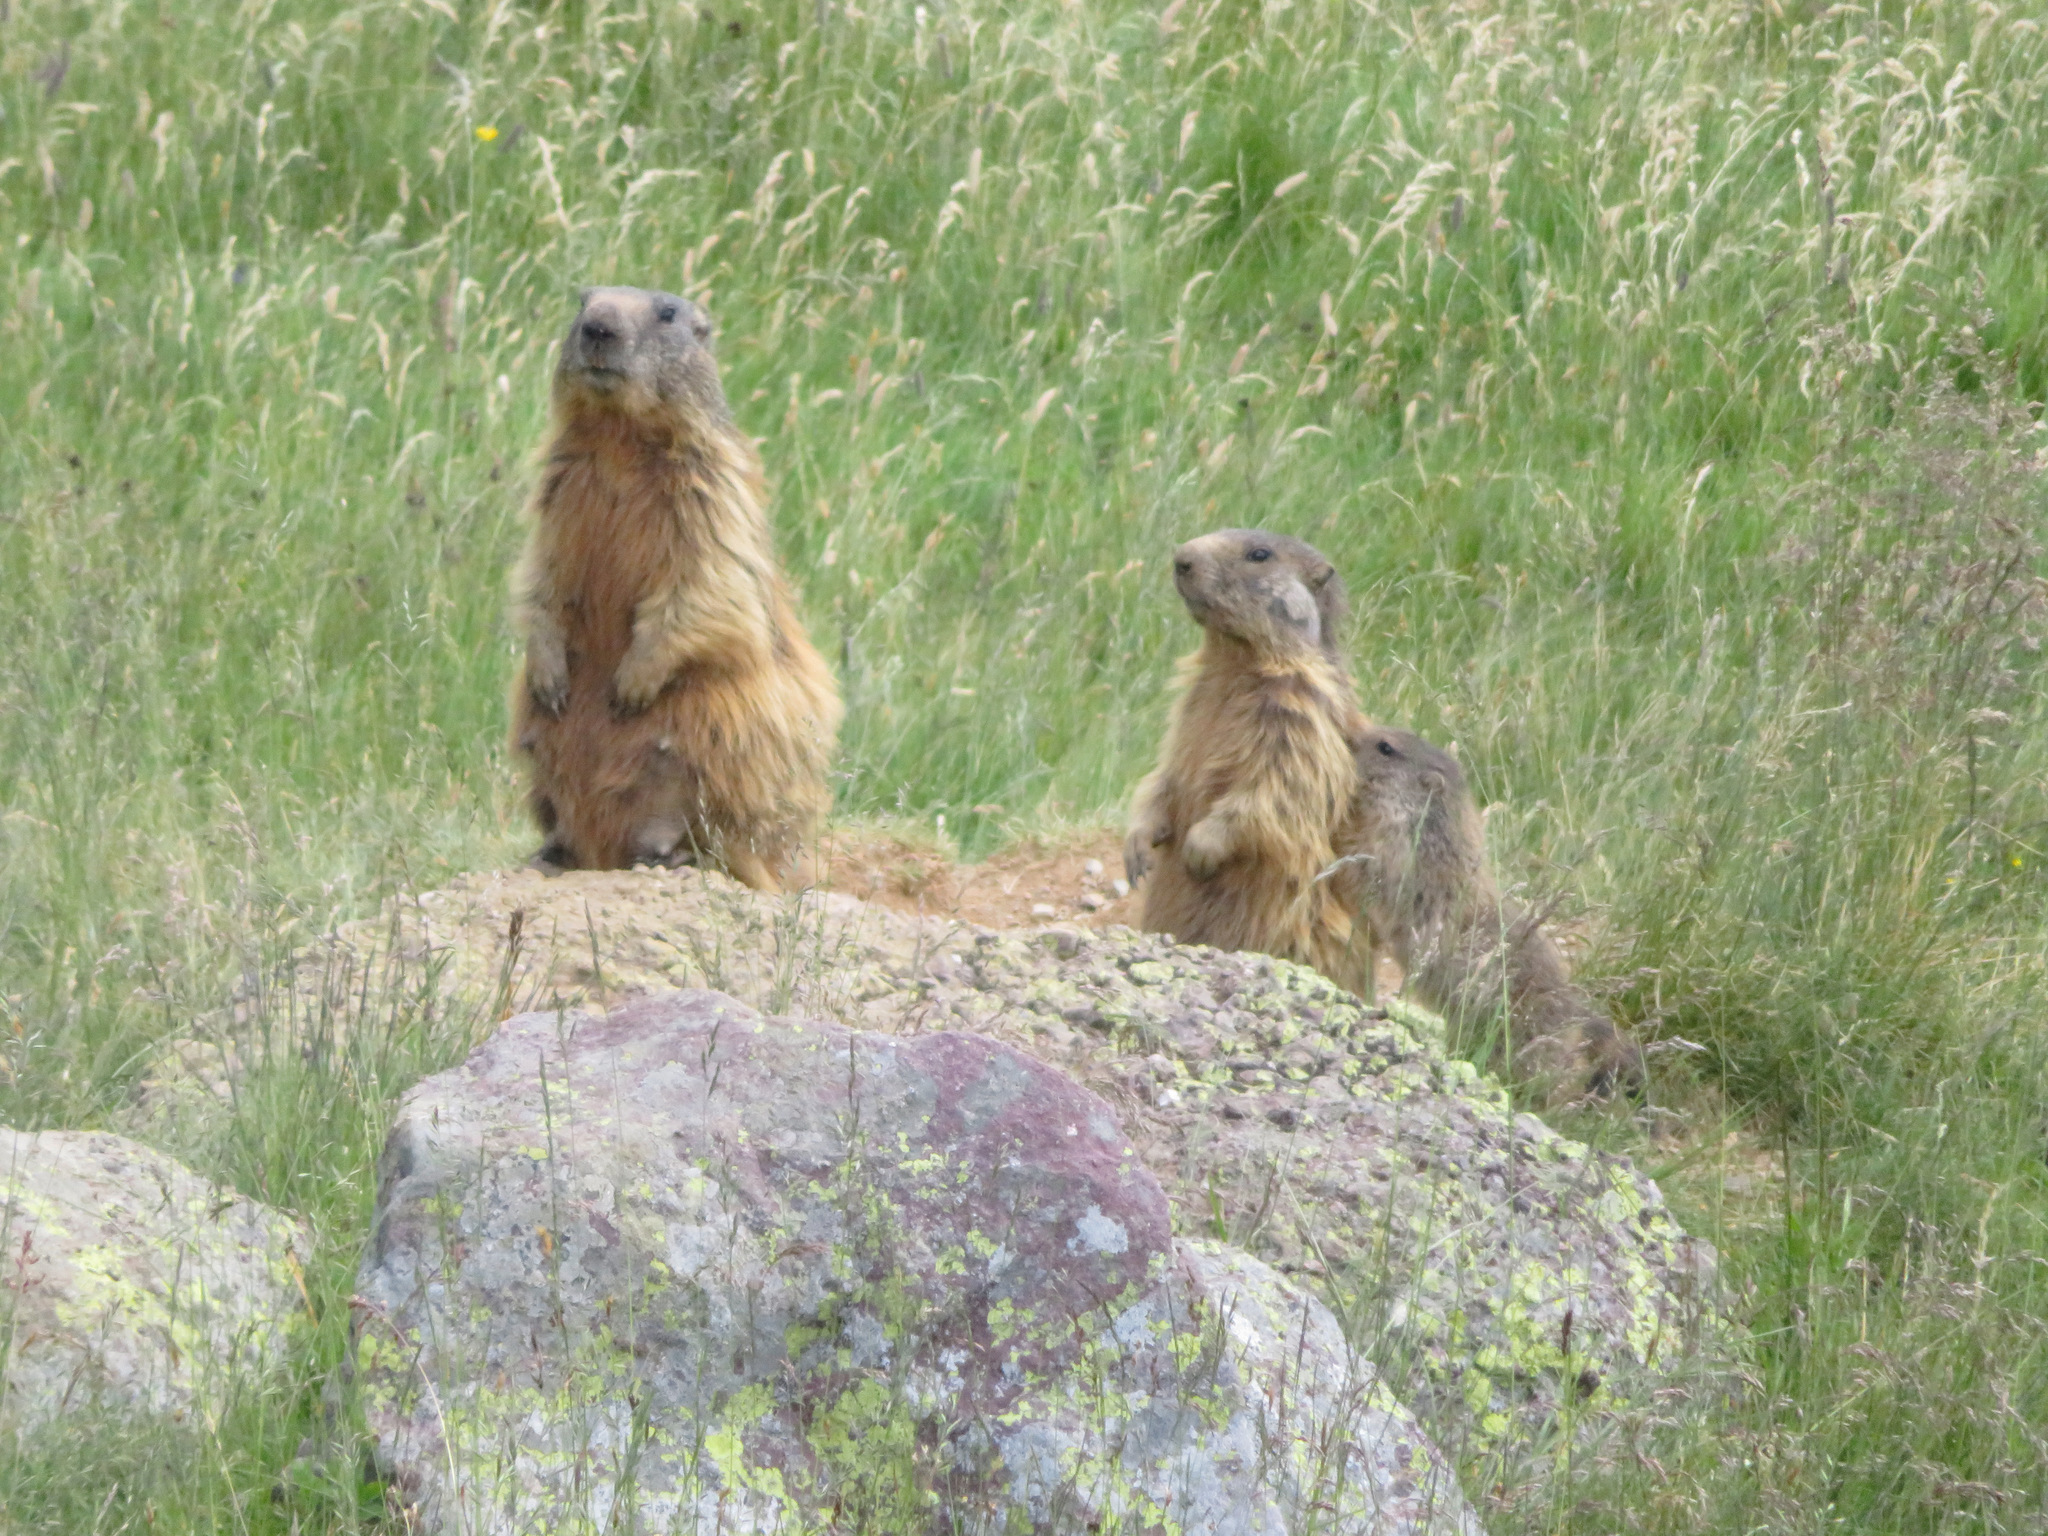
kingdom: Animalia
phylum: Chordata
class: Mammalia
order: Rodentia
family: Sciuridae
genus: Marmota
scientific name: Marmota marmota
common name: Alpine marmot
